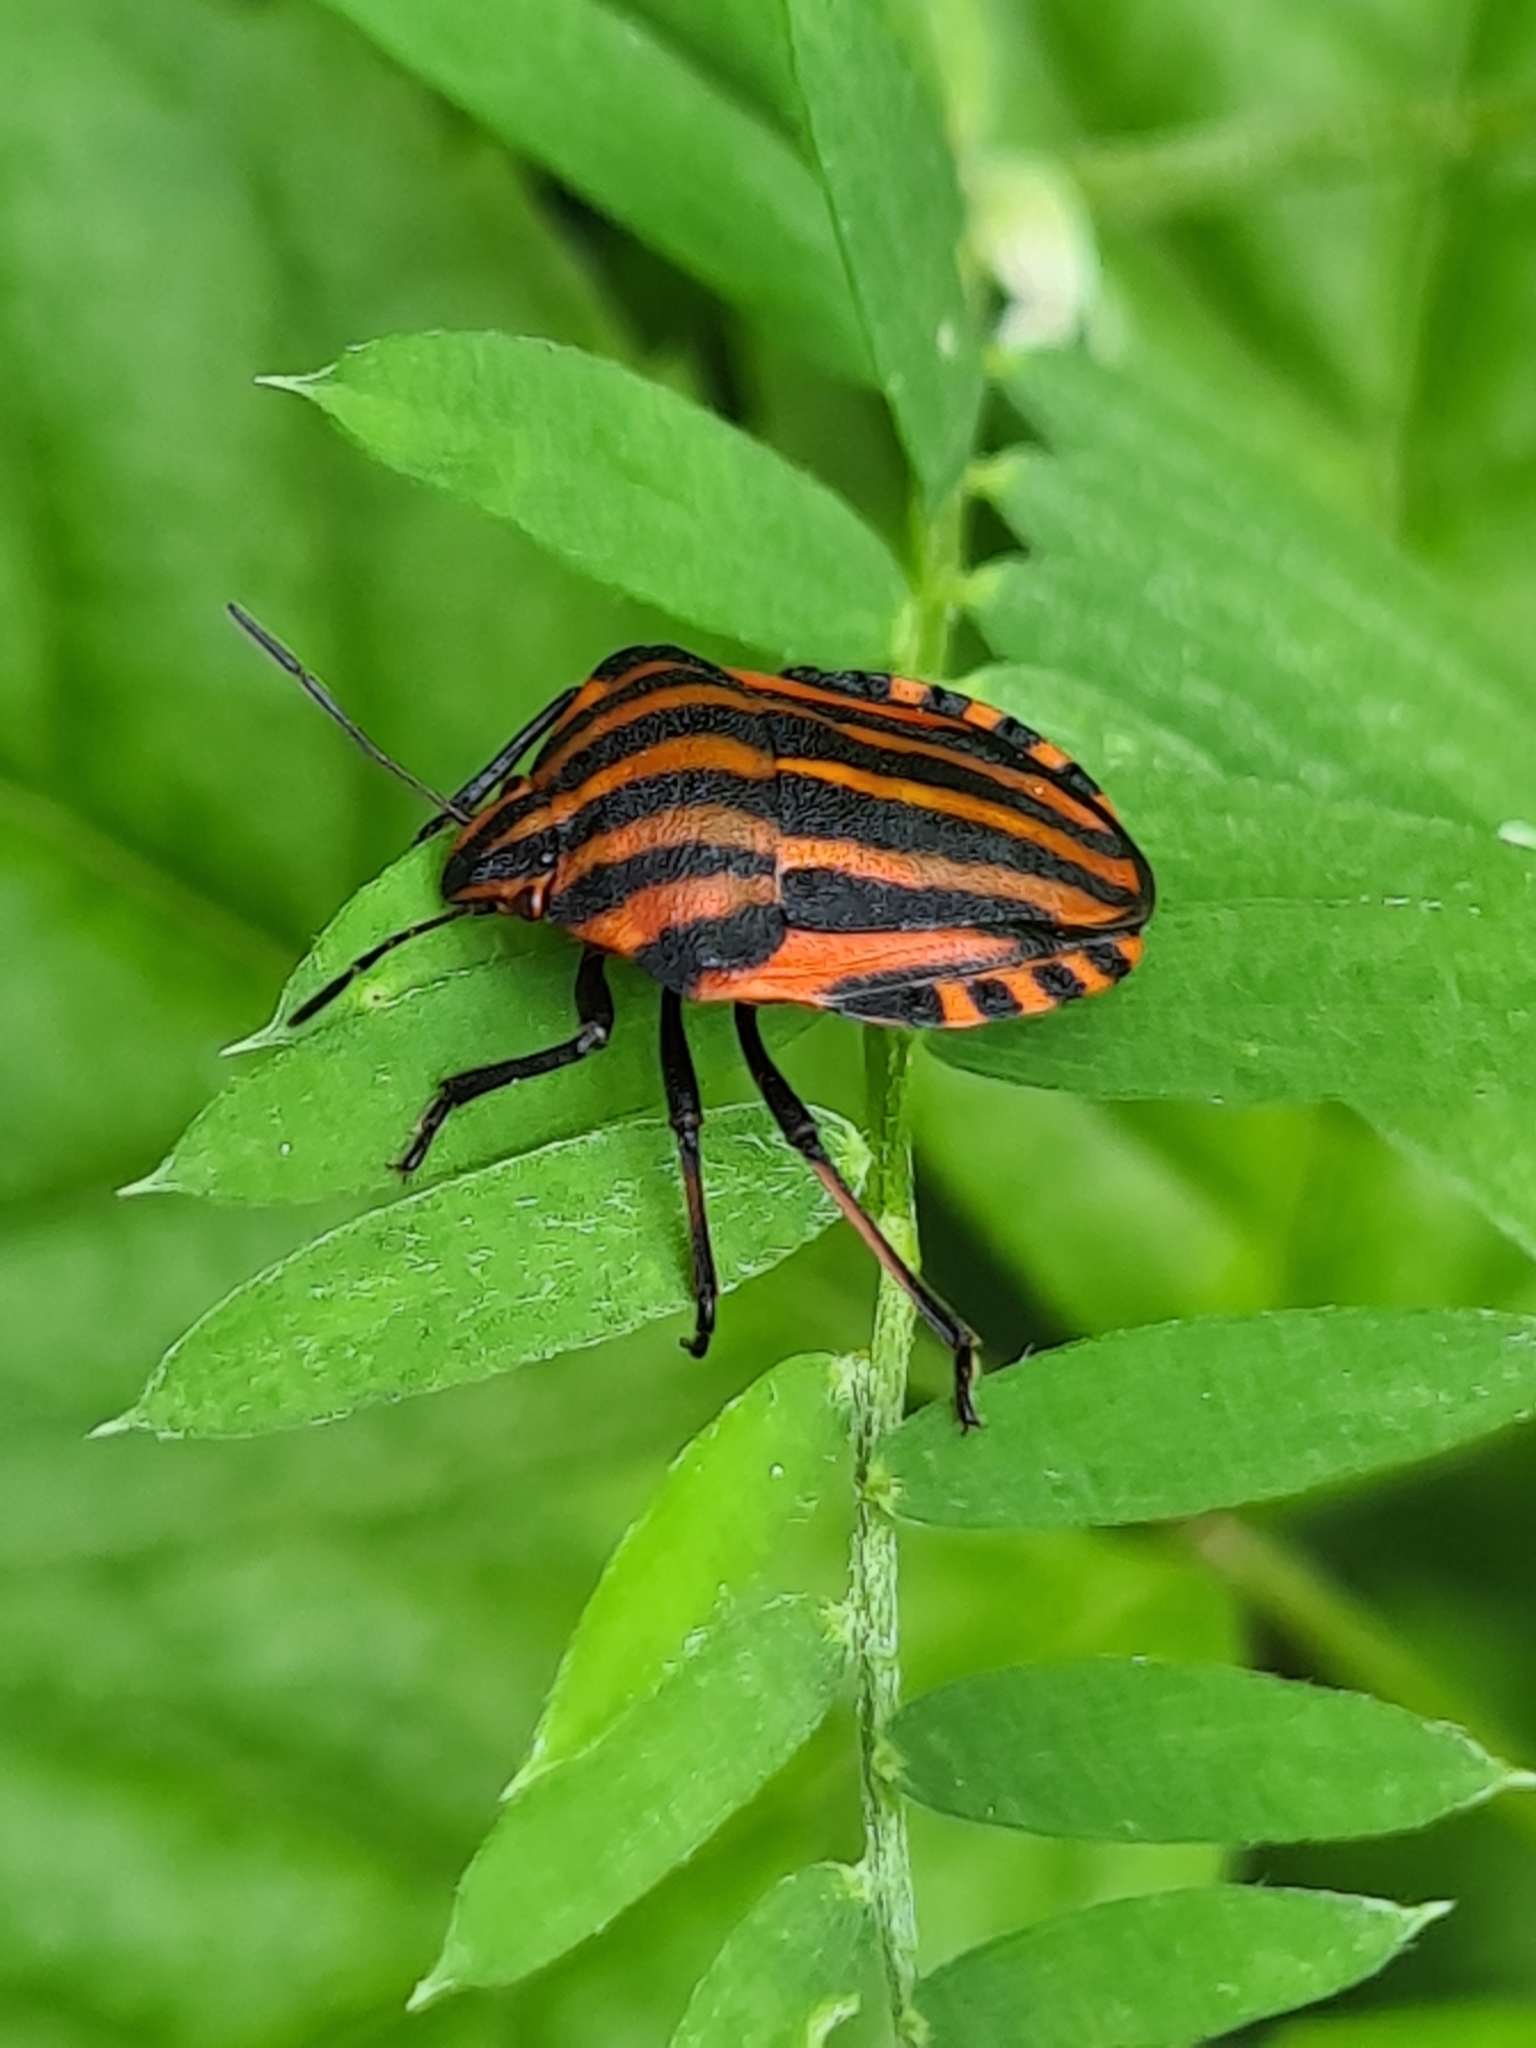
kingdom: Animalia
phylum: Arthropoda
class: Insecta
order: Hemiptera
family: Pentatomidae
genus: Graphosoma
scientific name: Graphosoma italicum
